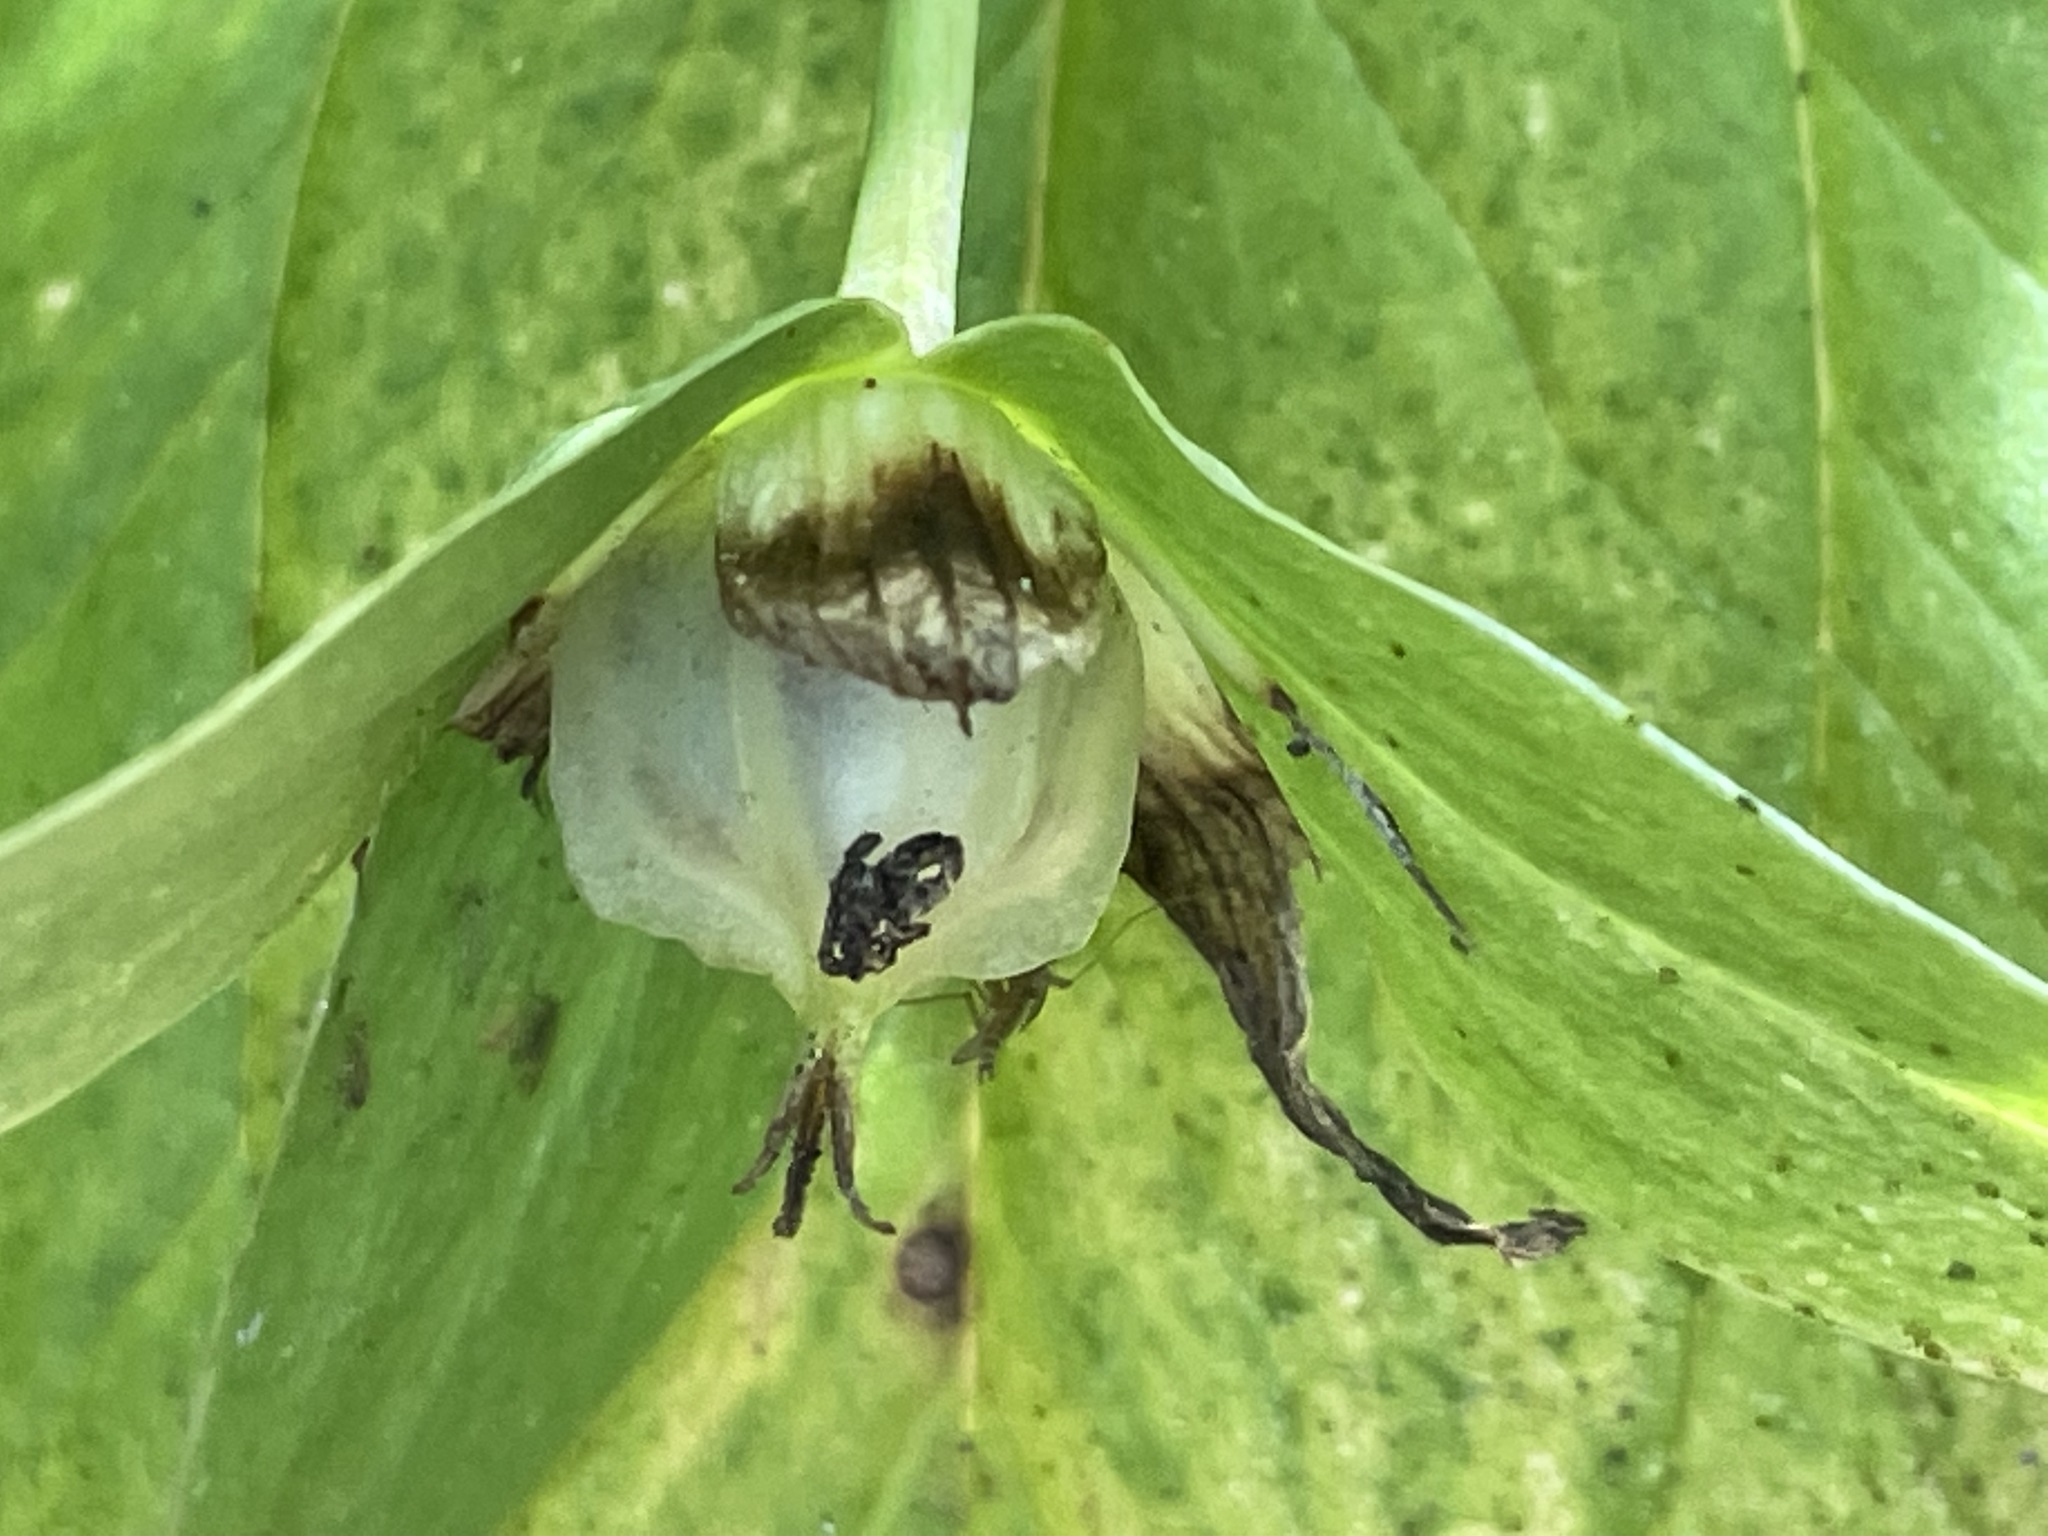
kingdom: Plantae
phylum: Tracheophyta
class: Liliopsida
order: Liliales
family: Melanthiaceae
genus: Trillium
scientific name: Trillium grandiflorum
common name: Great white trillium
